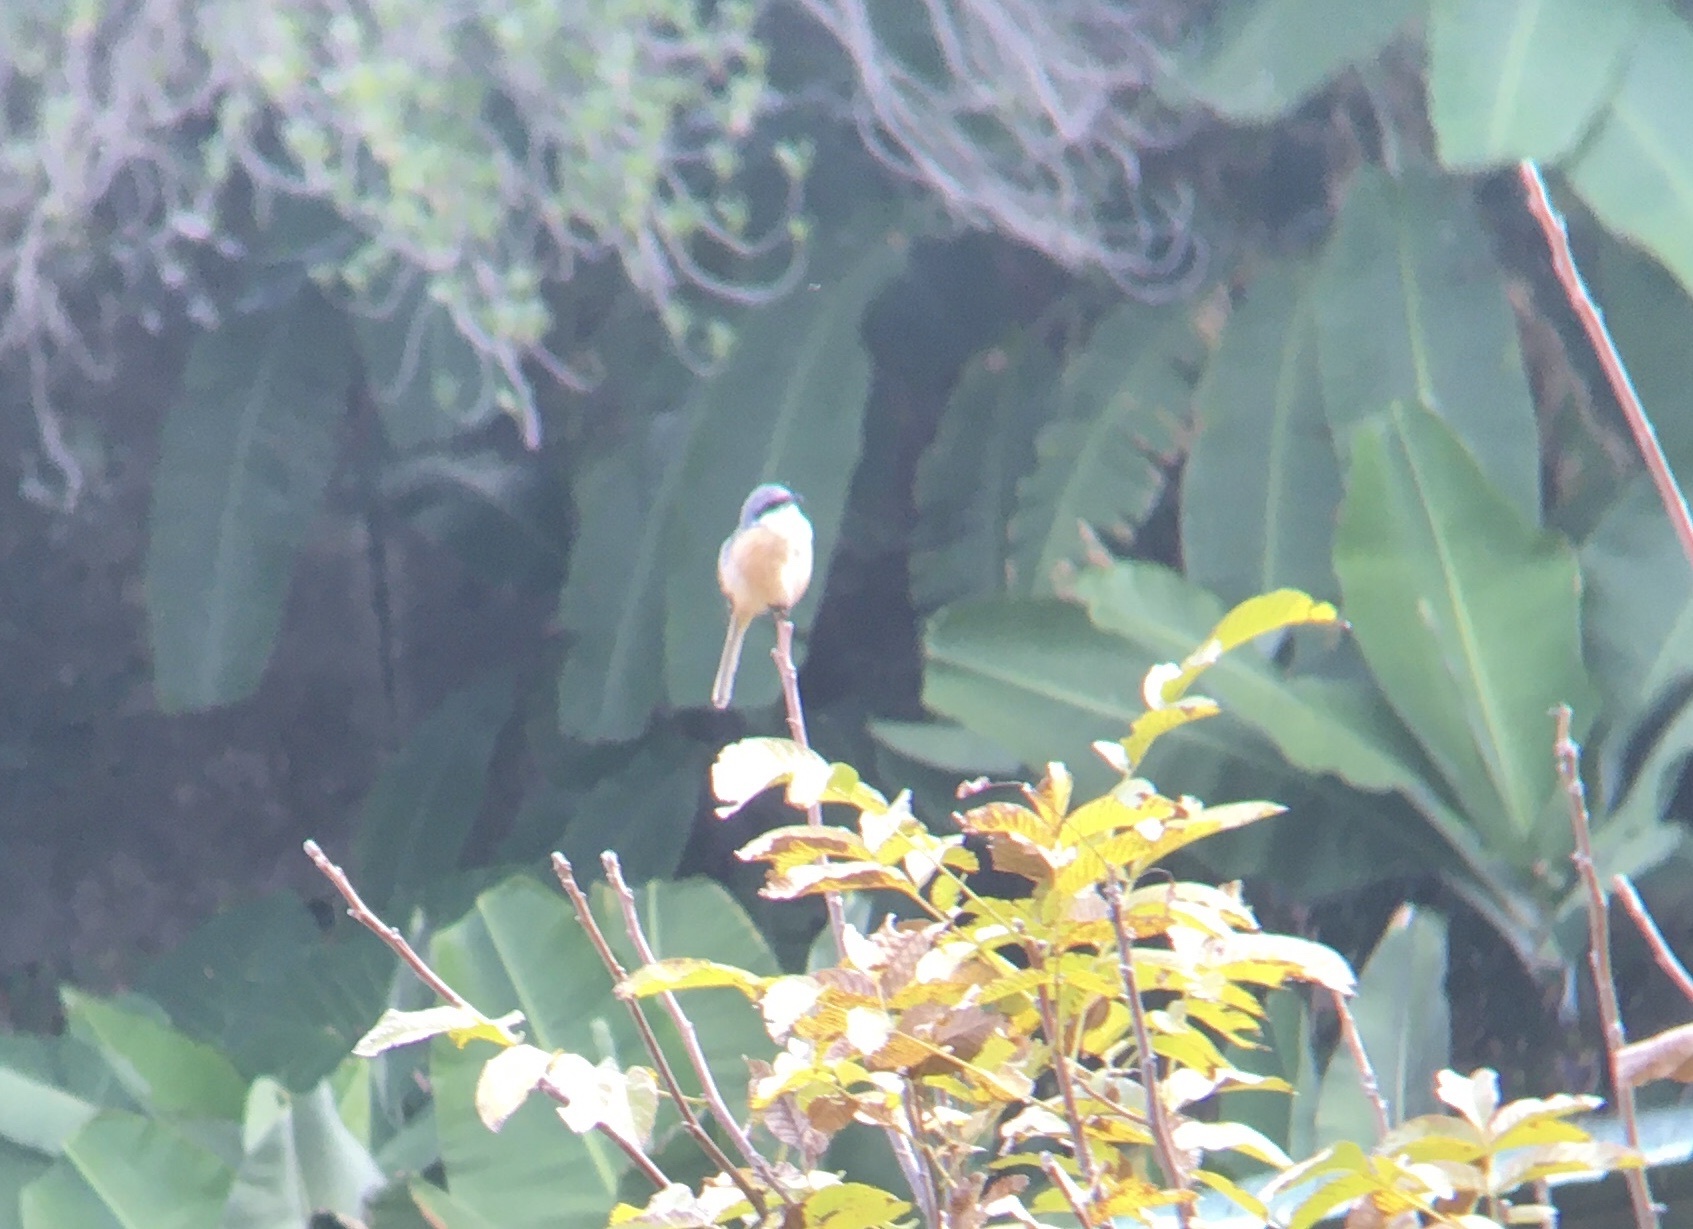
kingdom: Animalia
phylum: Chordata
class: Aves
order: Passeriformes
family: Laniidae
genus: Lanius
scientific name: Lanius schach
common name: Long-tailed shrike
